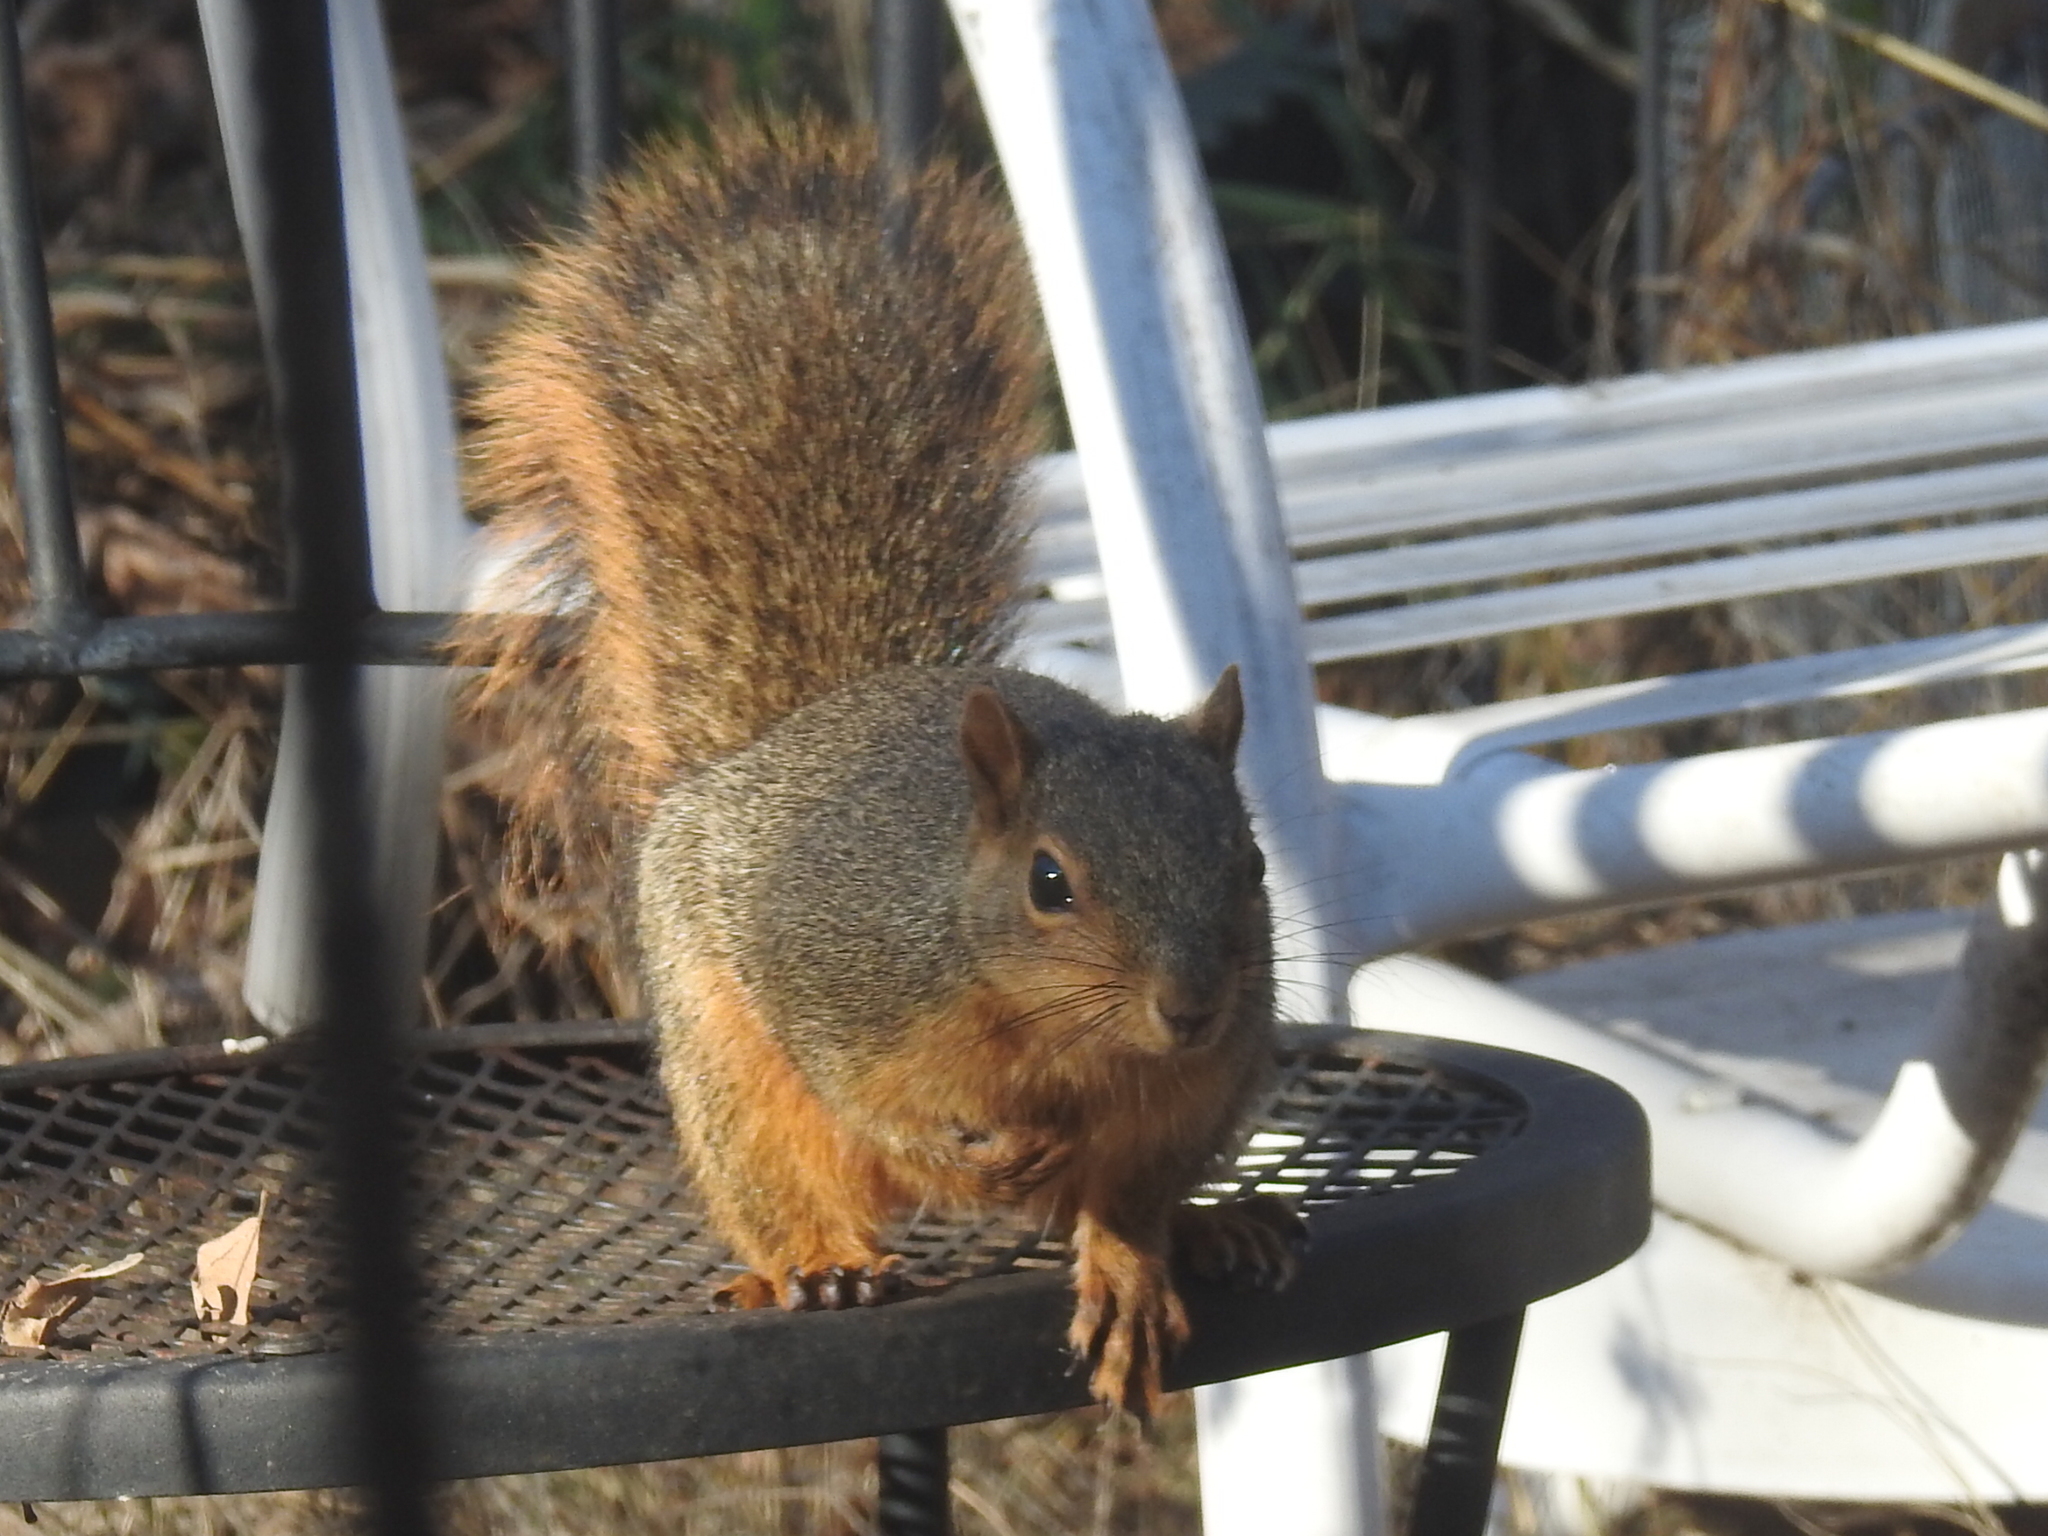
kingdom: Animalia
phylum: Chordata
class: Mammalia
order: Rodentia
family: Sciuridae
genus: Sciurus
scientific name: Sciurus niger
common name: Fox squirrel
